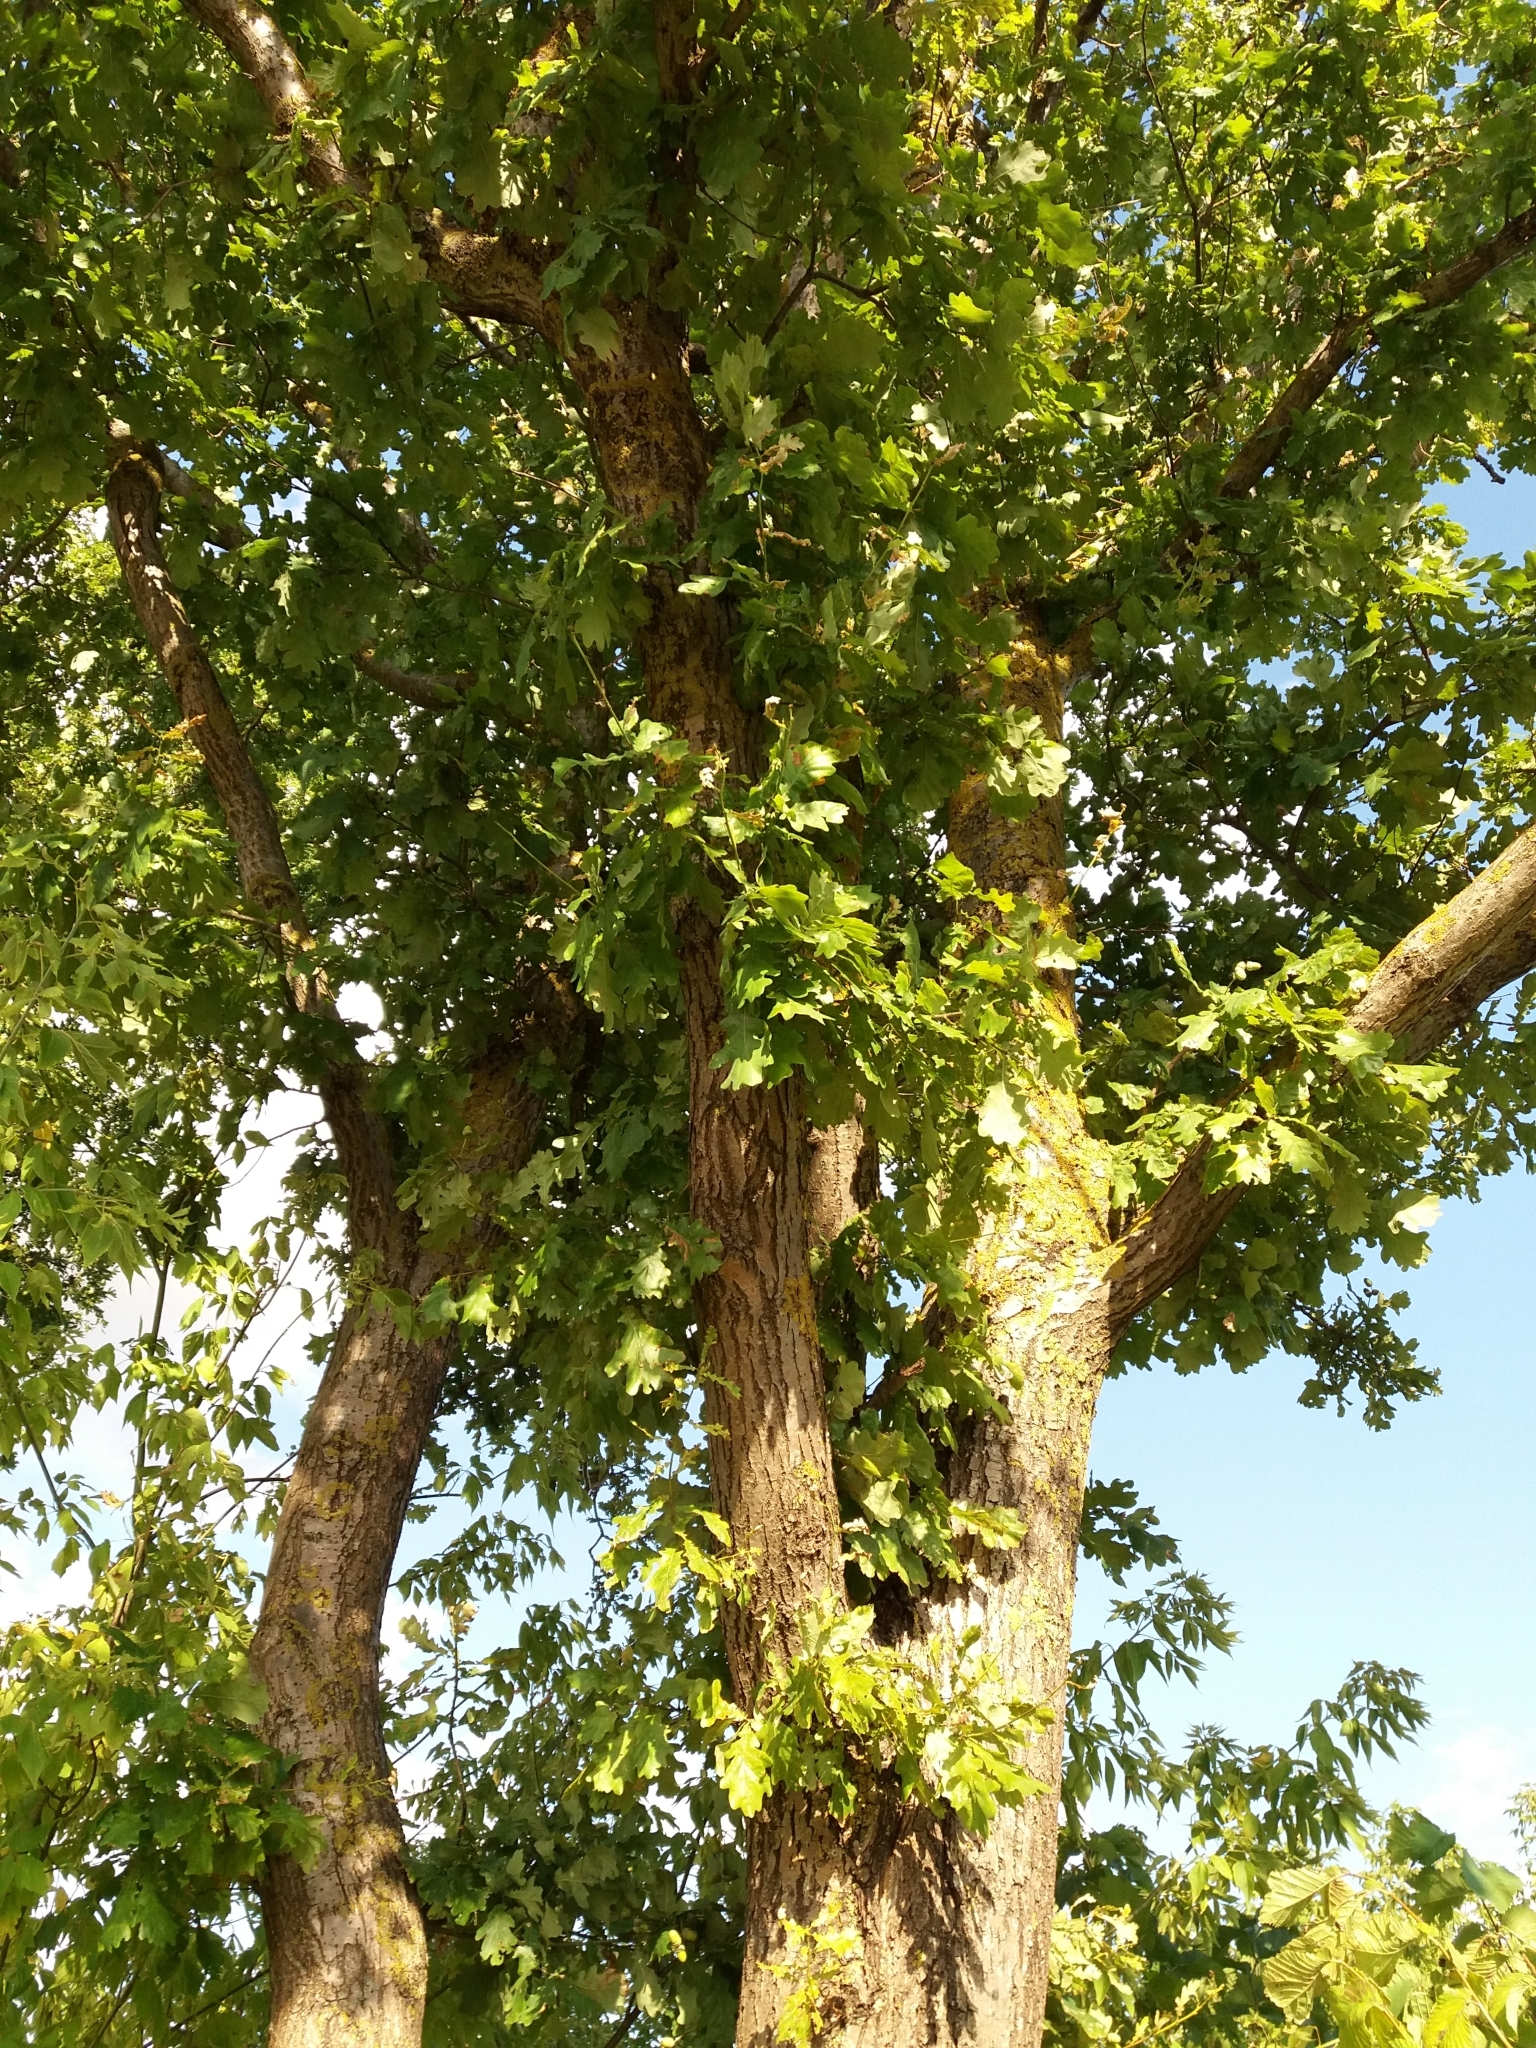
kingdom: Plantae
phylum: Tracheophyta
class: Magnoliopsida
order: Fagales
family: Fagaceae
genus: Quercus
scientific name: Quercus robur
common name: Pedunculate oak
